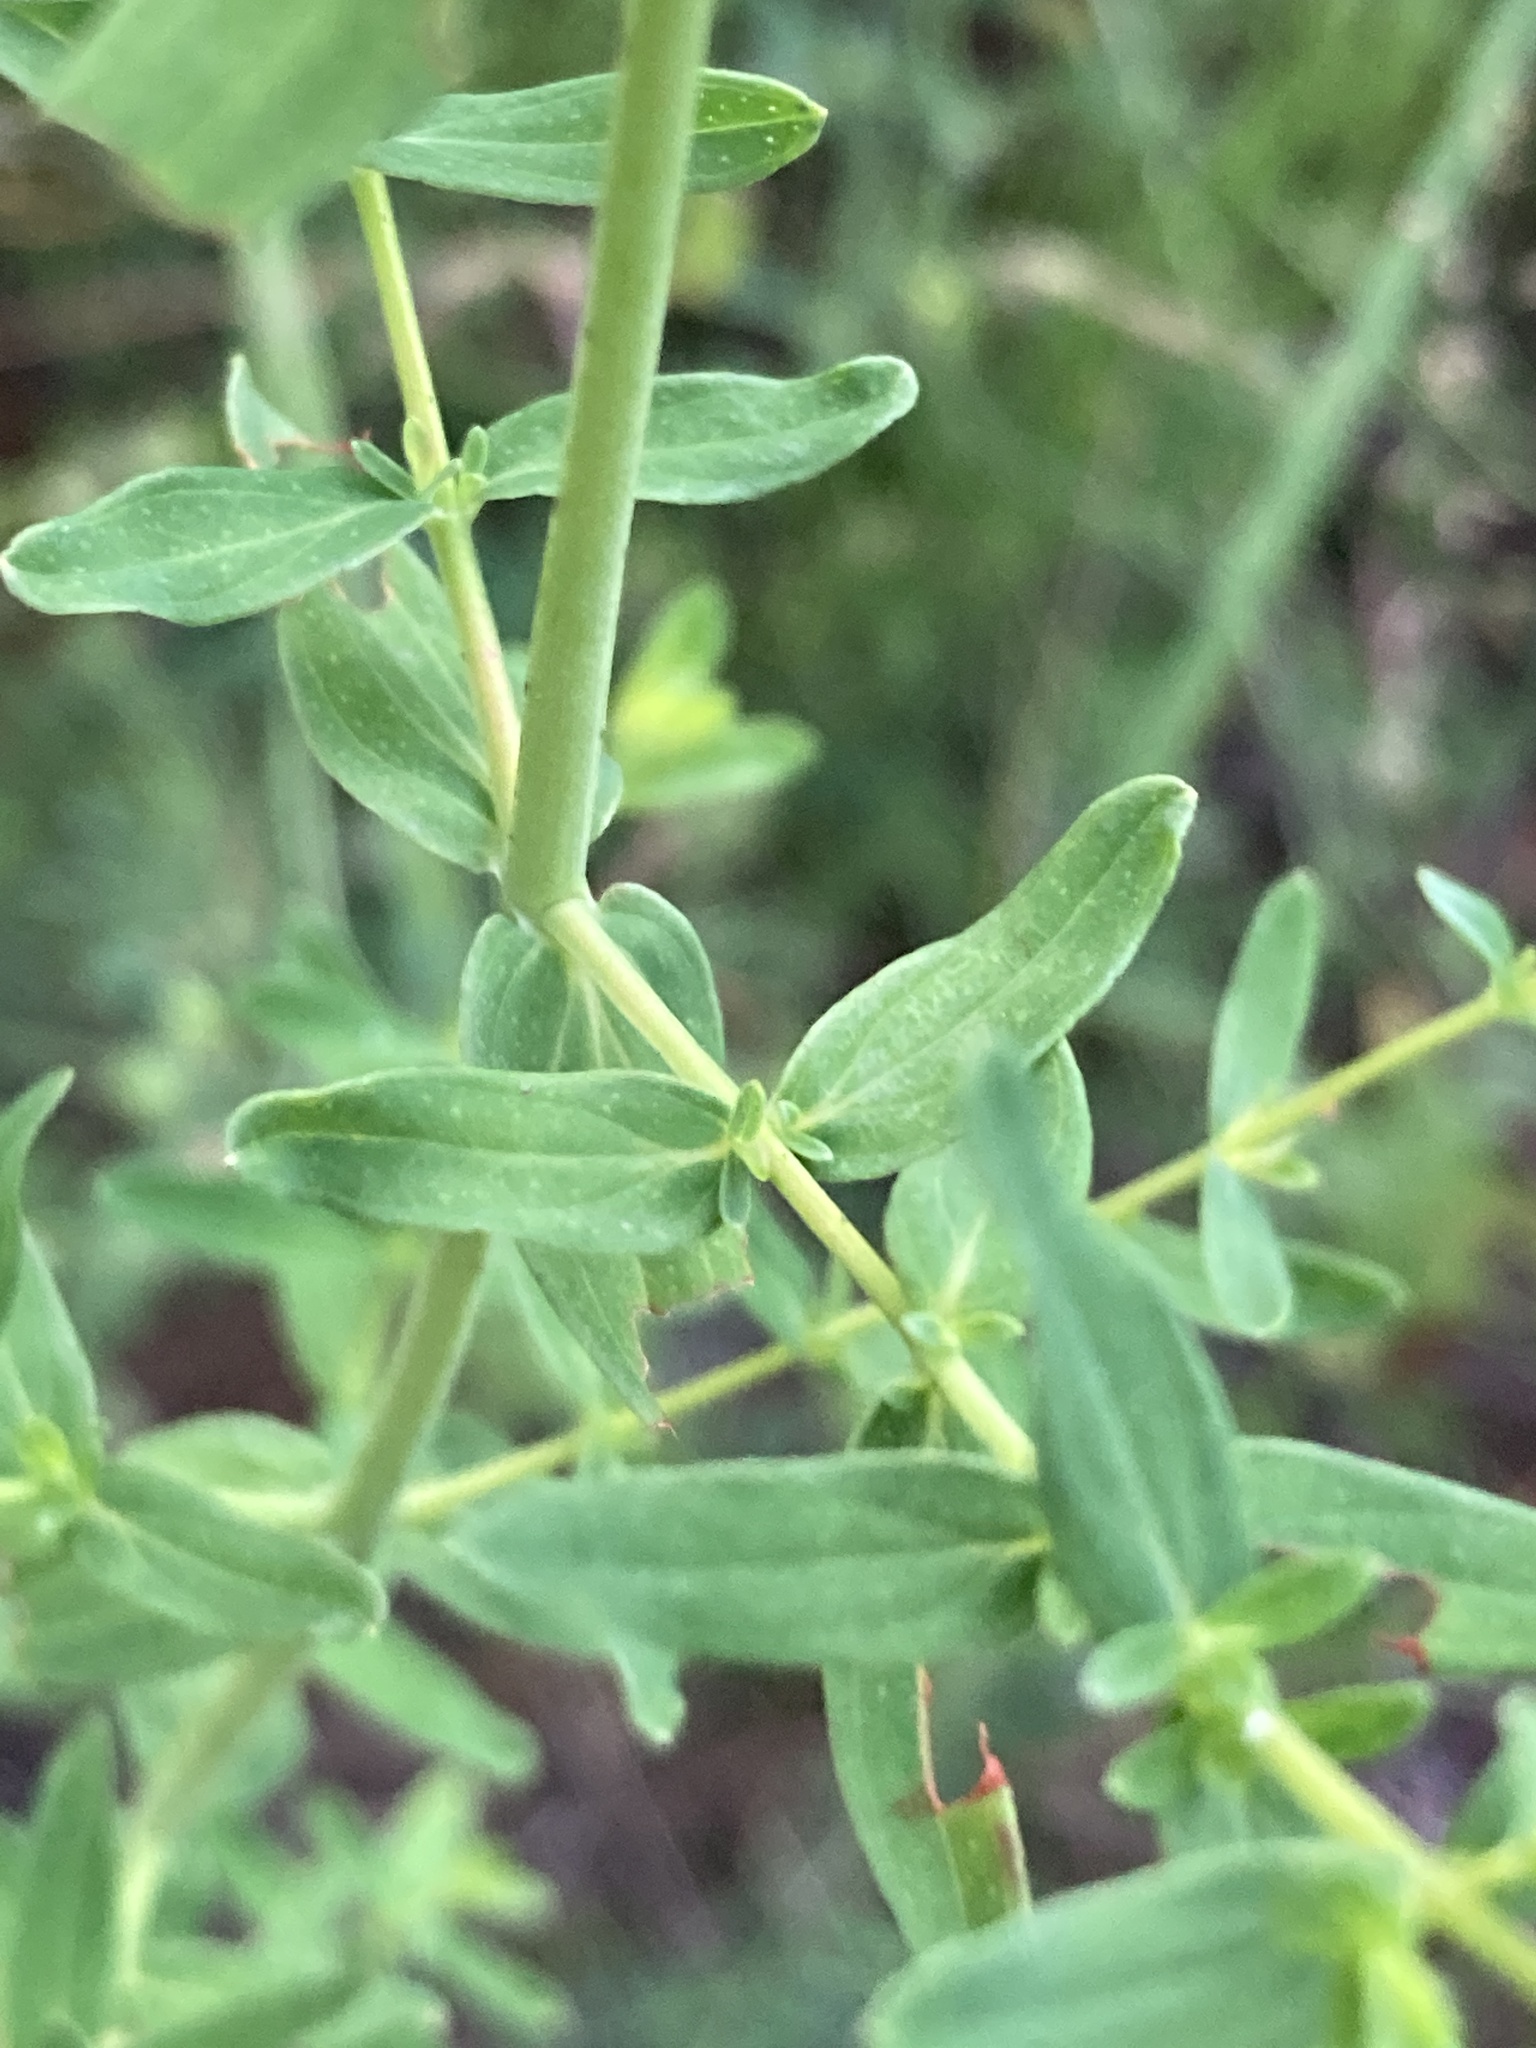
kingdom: Plantae
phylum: Tracheophyta
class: Magnoliopsida
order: Malpighiales
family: Hypericaceae
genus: Hypericum
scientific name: Hypericum perforatum
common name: Common st. johnswort
